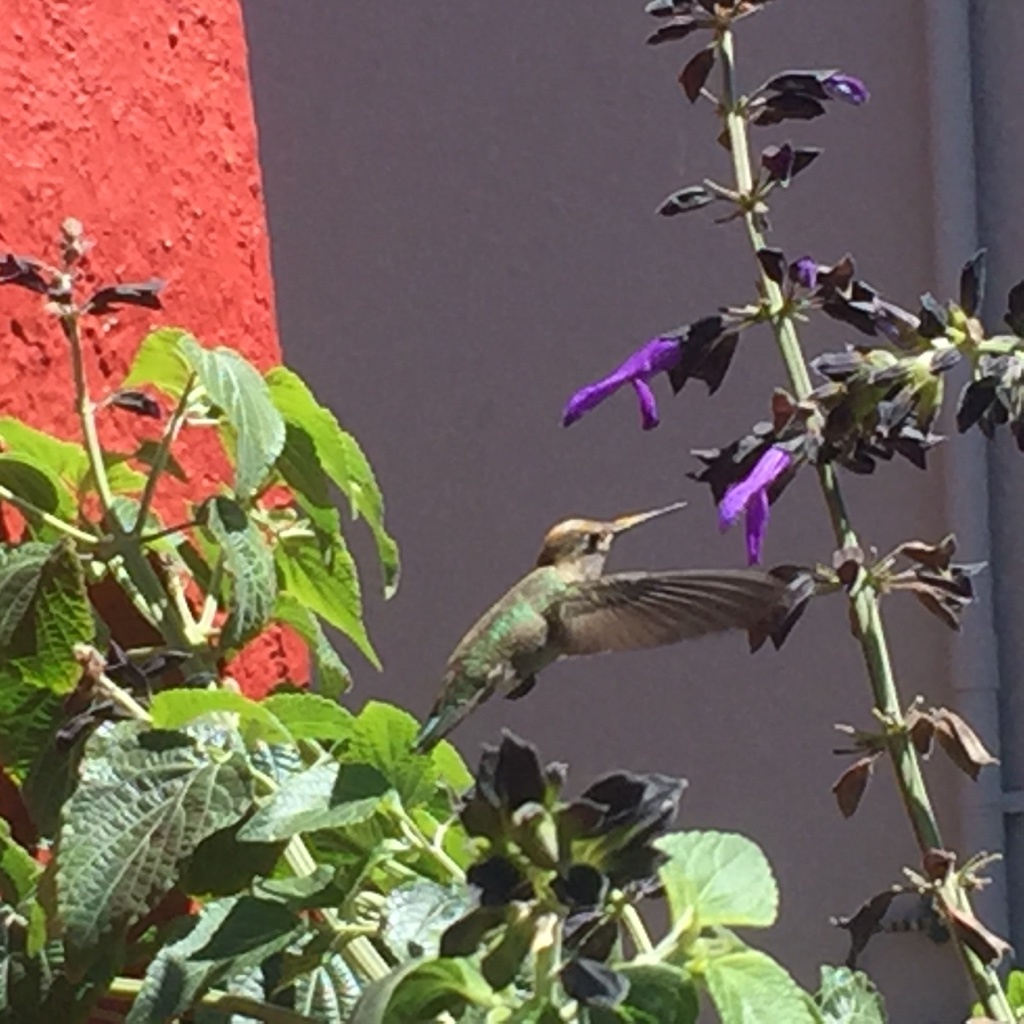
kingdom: Animalia
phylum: Chordata
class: Aves
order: Apodiformes
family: Trochilidae
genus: Calypte
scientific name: Calypte anna
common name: Anna's hummingbird
